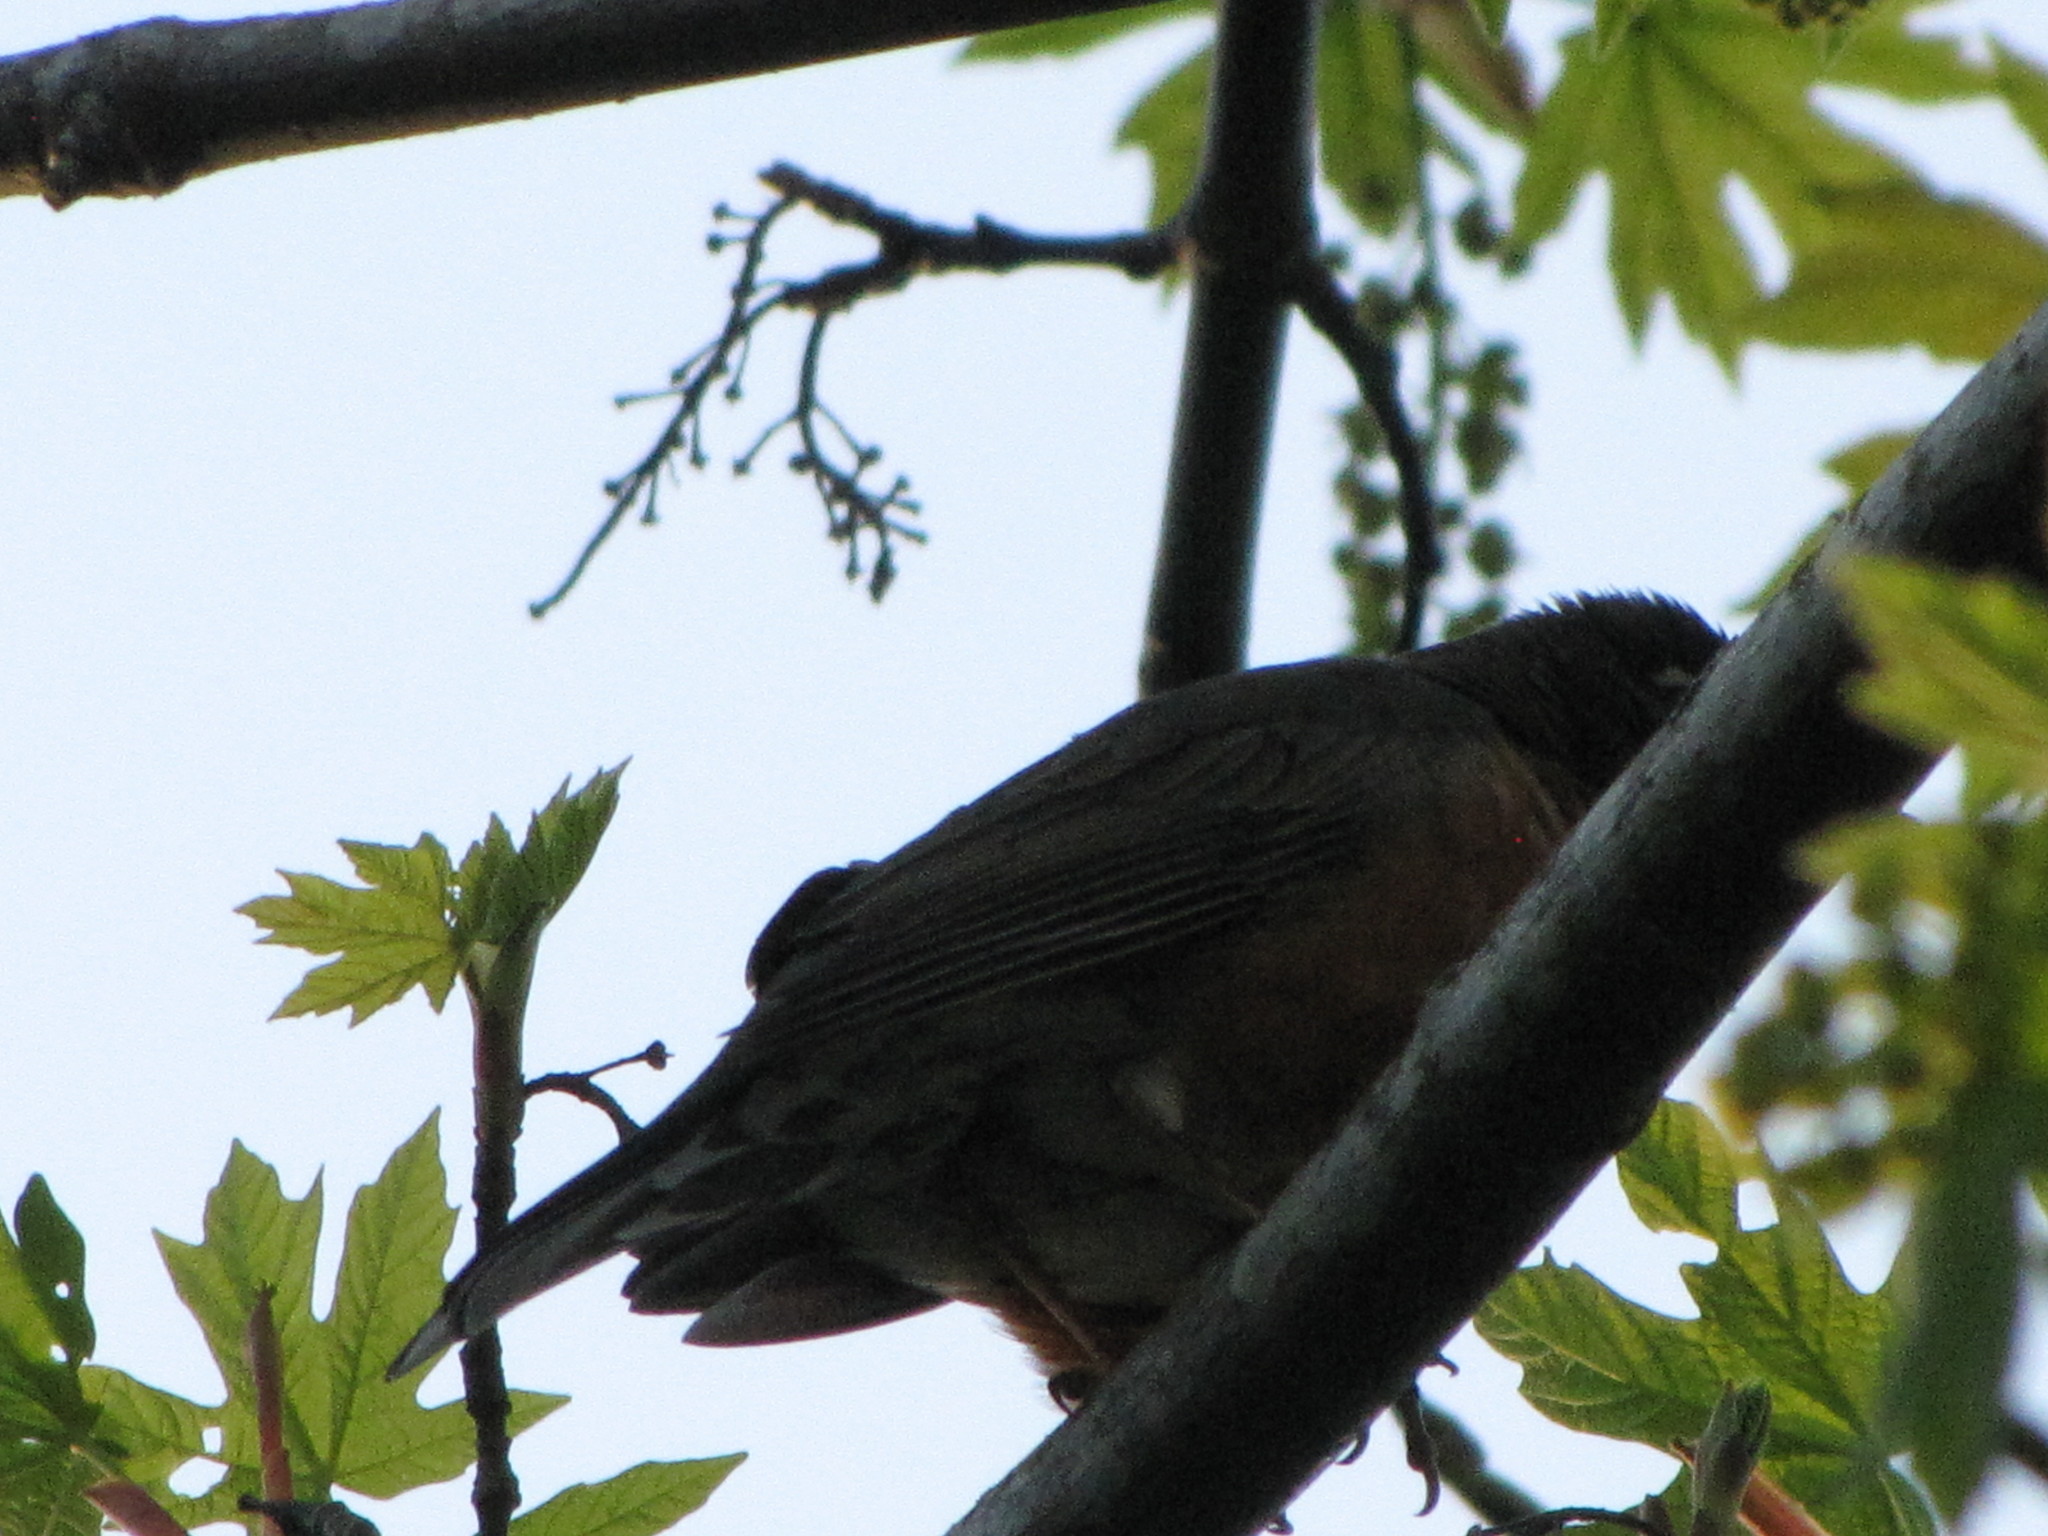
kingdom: Animalia
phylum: Chordata
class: Aves
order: Passeriformes
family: Turdidae
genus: Turdus
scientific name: Turdus migratorius
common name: American robin
